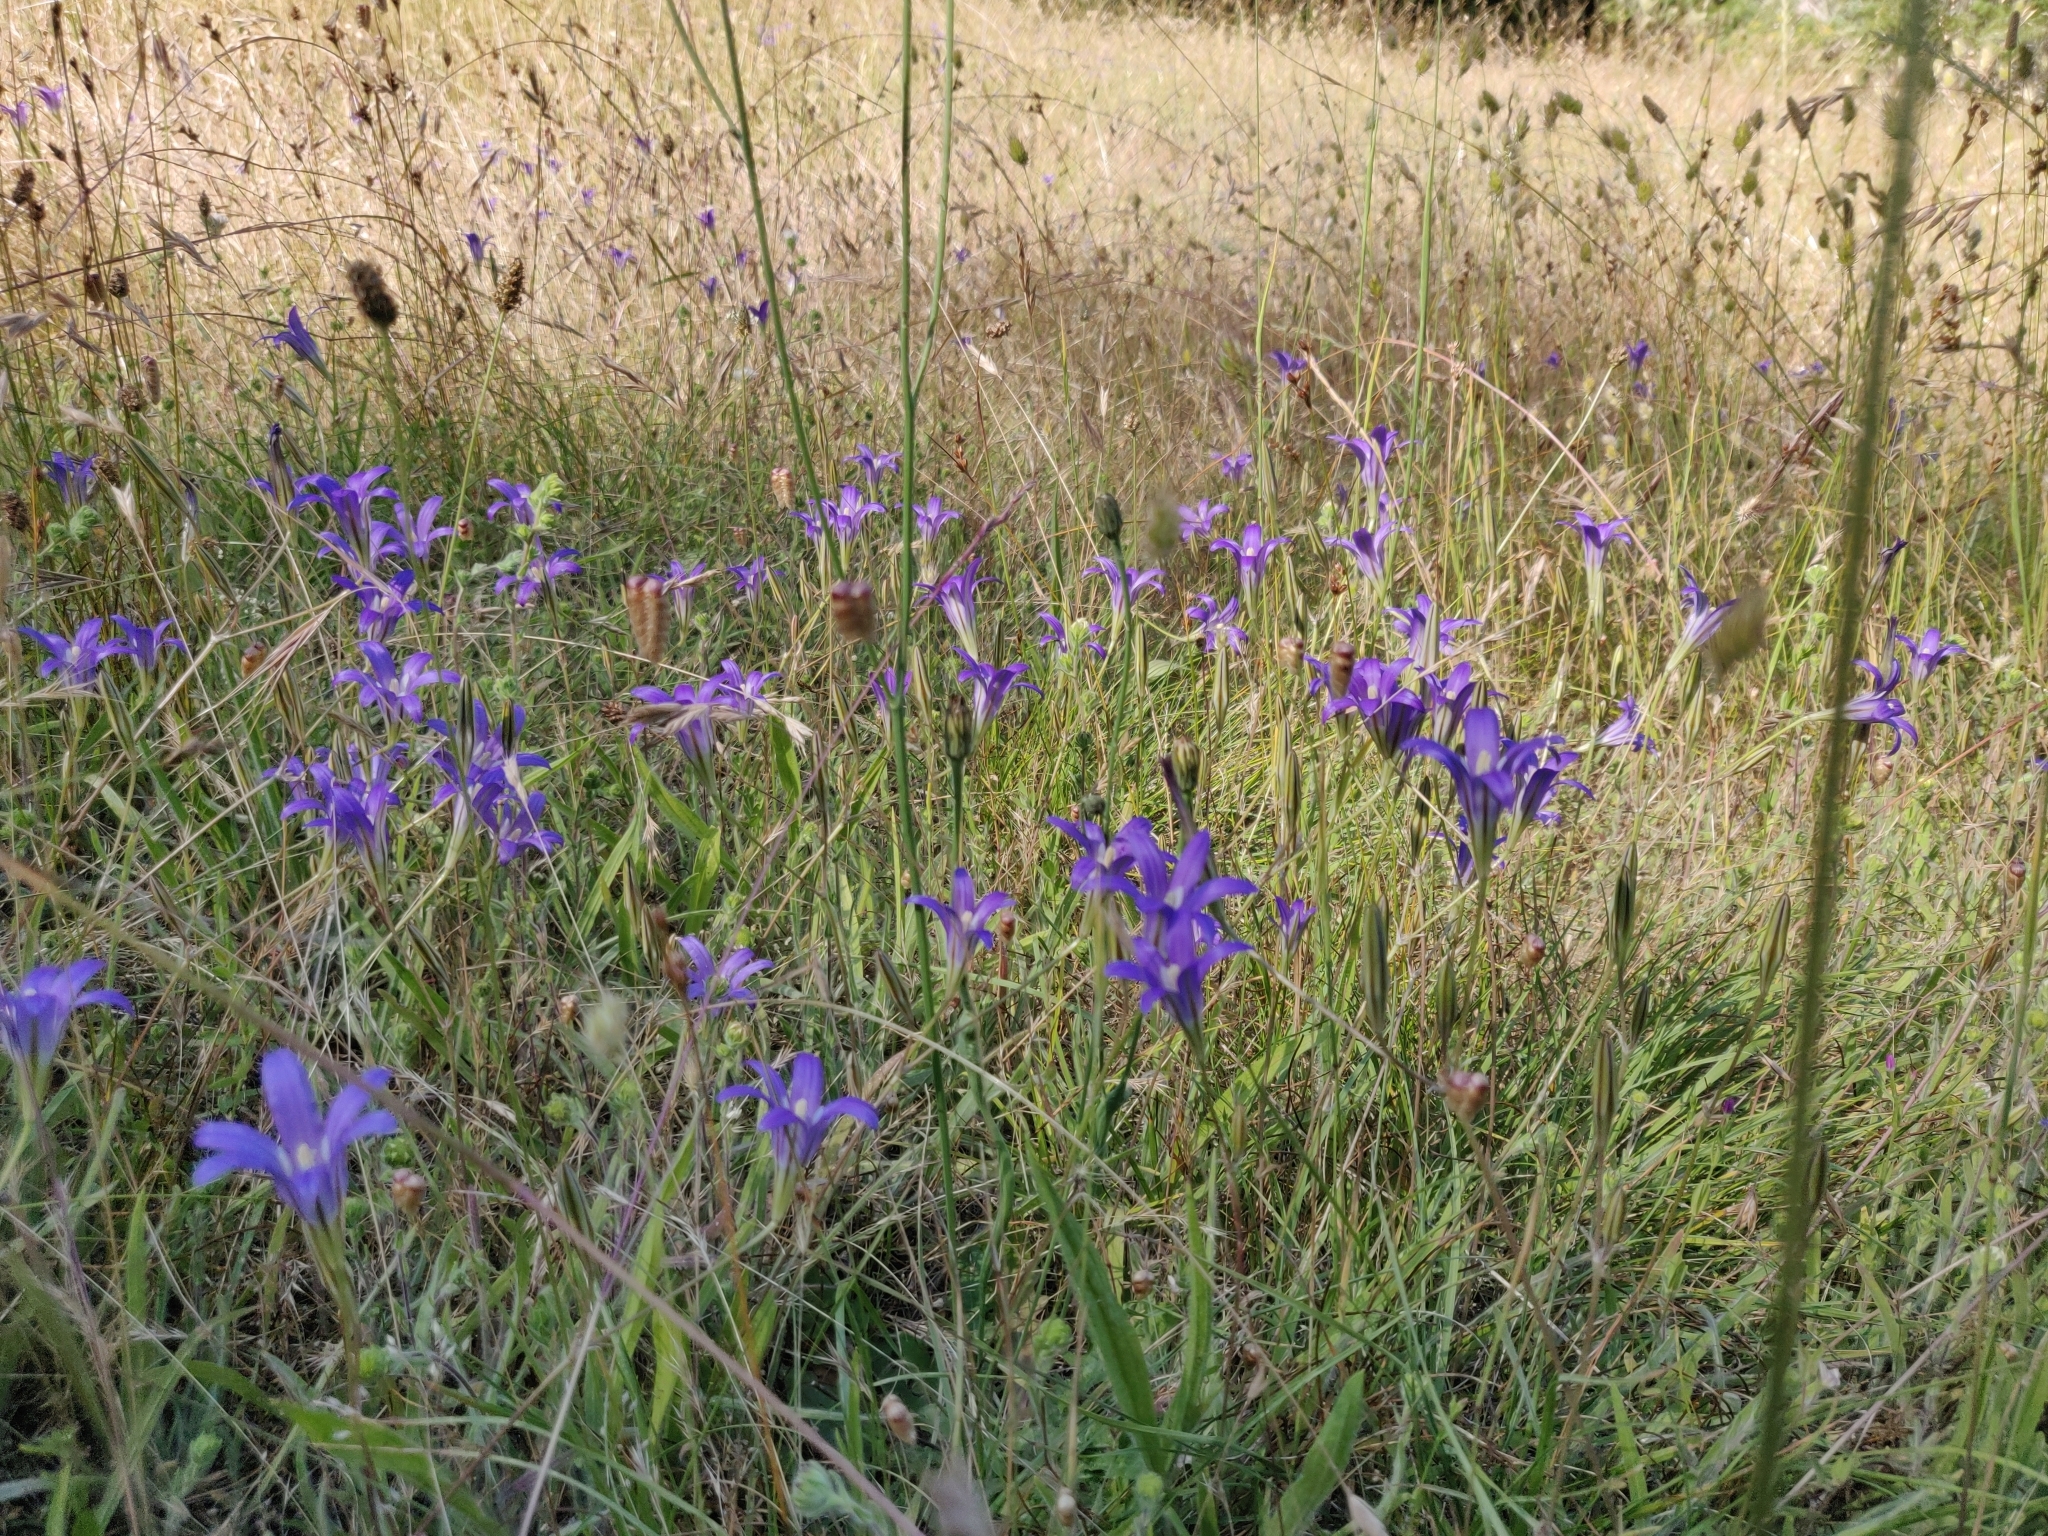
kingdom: Plantae
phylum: Tracheophyta
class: Liliopsida
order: Asparagales
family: Asparagaceae
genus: Brodiaea
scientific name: Brodiaea elegans
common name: Elegant cluster-lily
